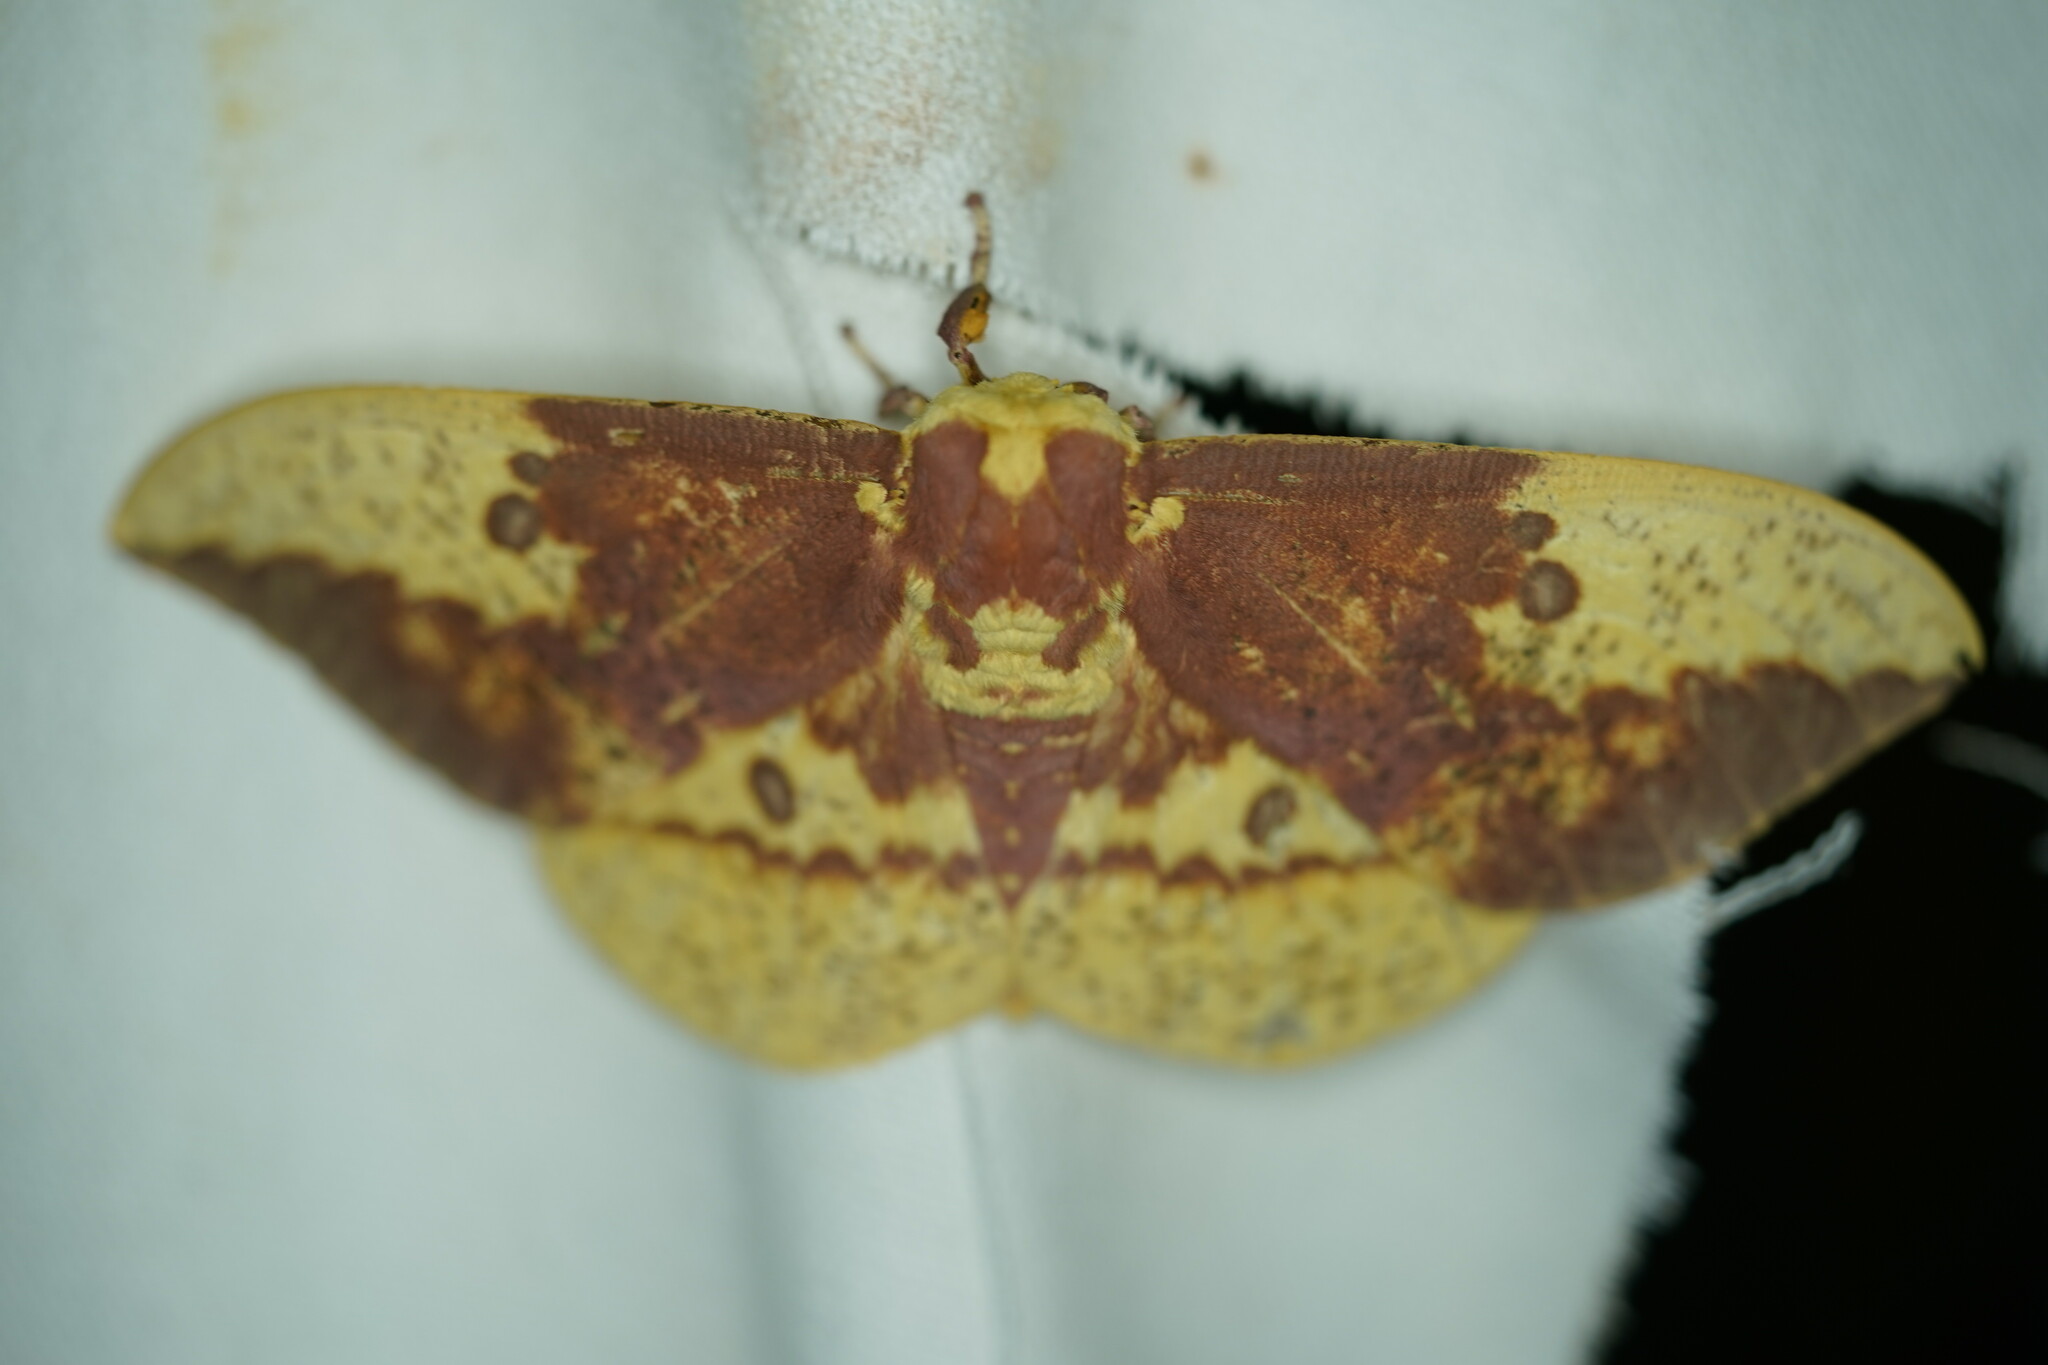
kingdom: Animalia
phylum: Arthropoda
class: Insecta
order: Lepidoptera
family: Saturniidae
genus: Eacles
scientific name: Eacles imperialis
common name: Imperial moth
